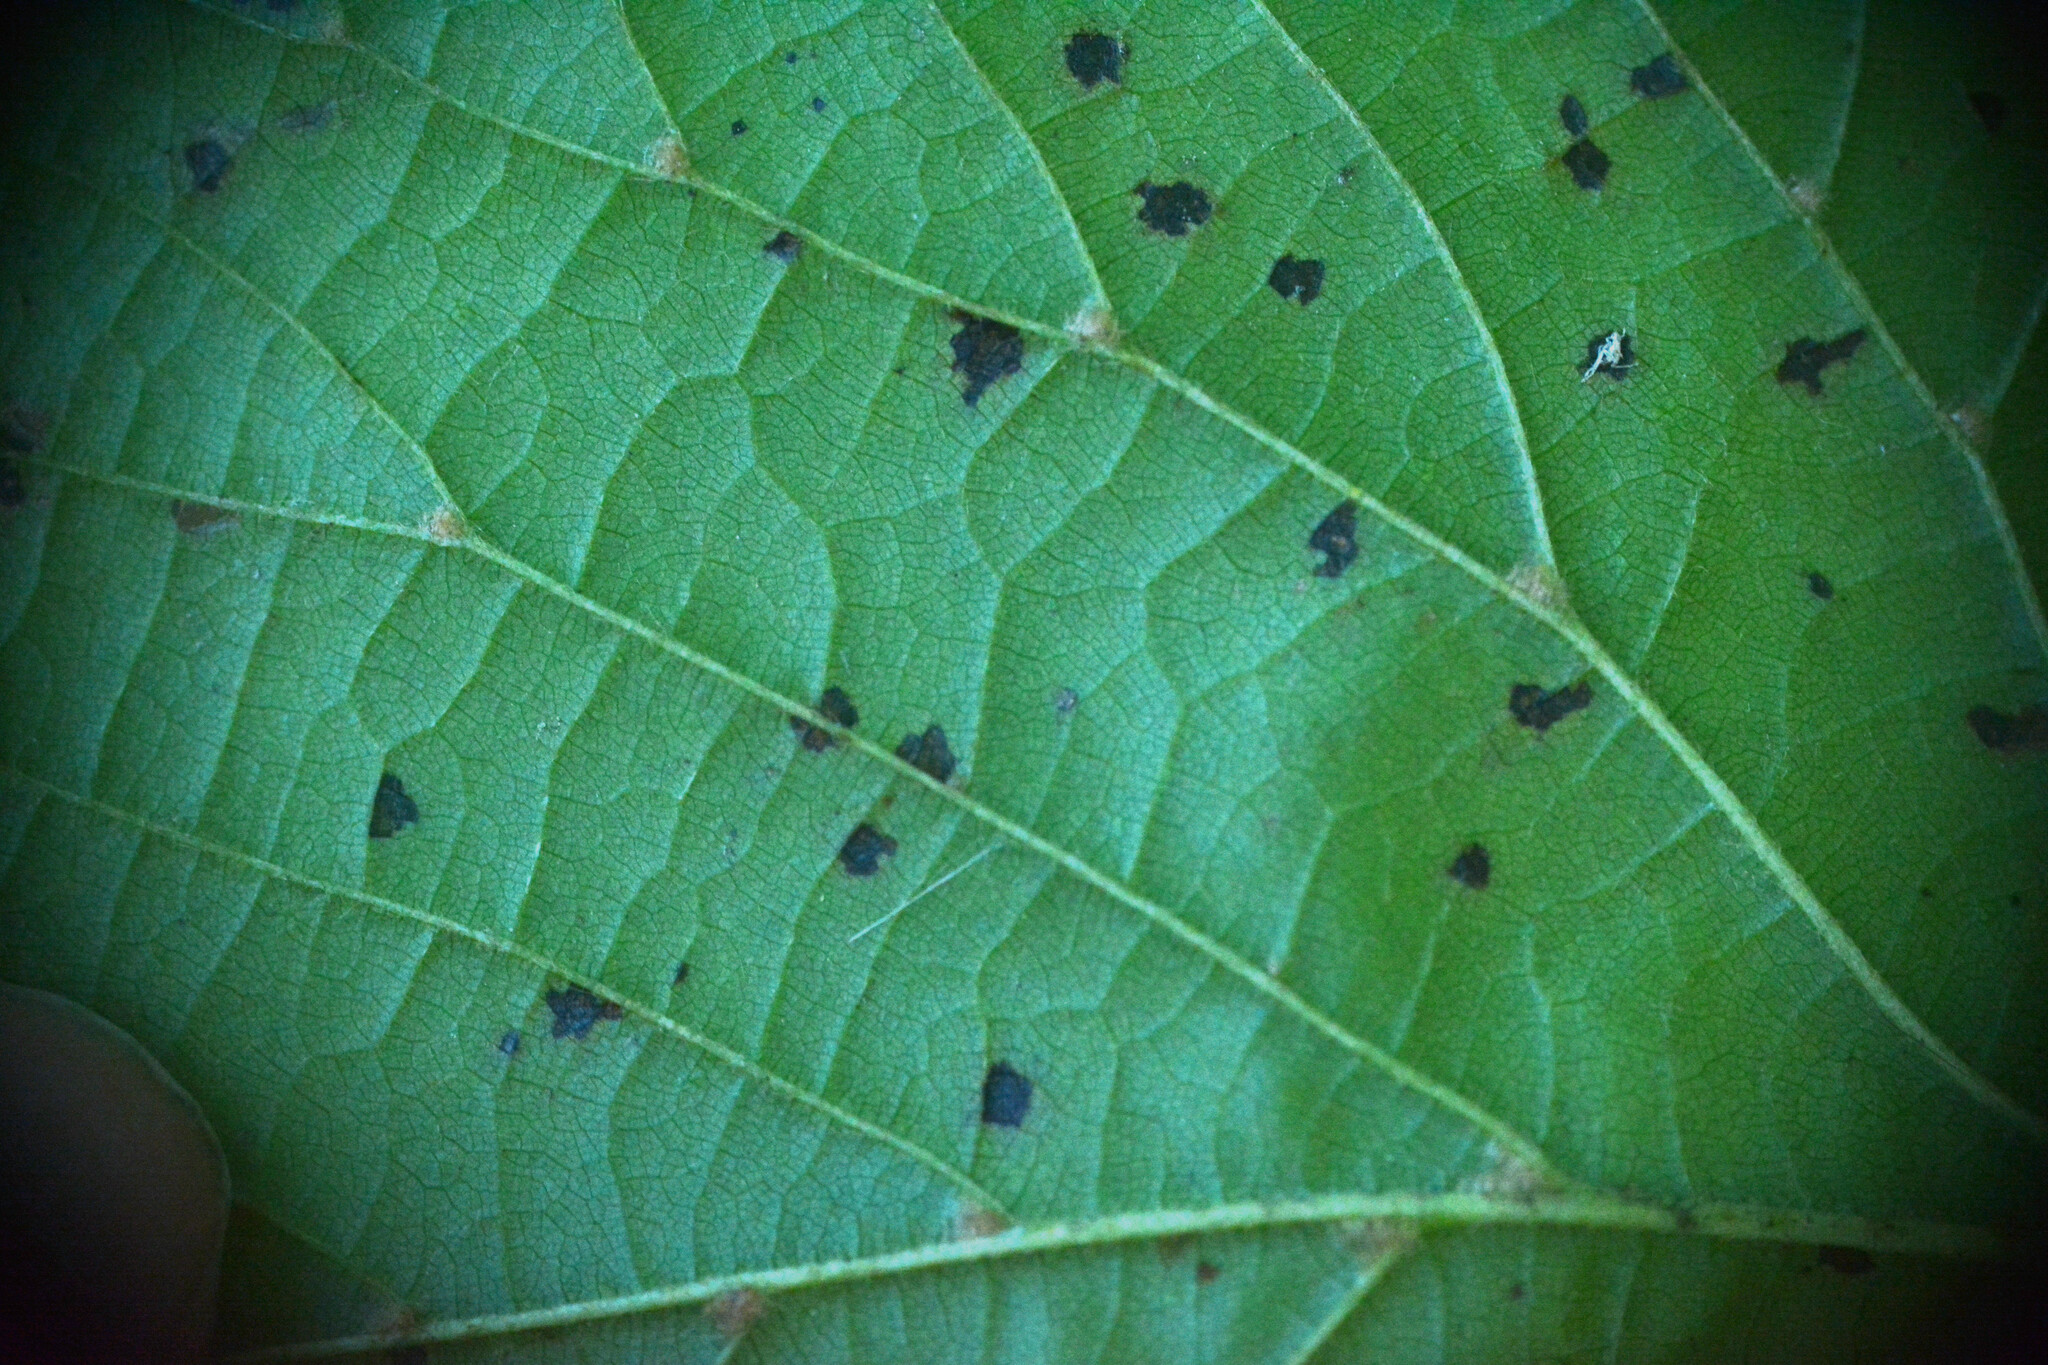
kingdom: Fungi
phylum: Ascomycota
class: Dothideomycetes
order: Mycosphaerellales
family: Mycosphaerellaceae
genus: Paracercosporidium
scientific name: Paracercosporidium microsorum
